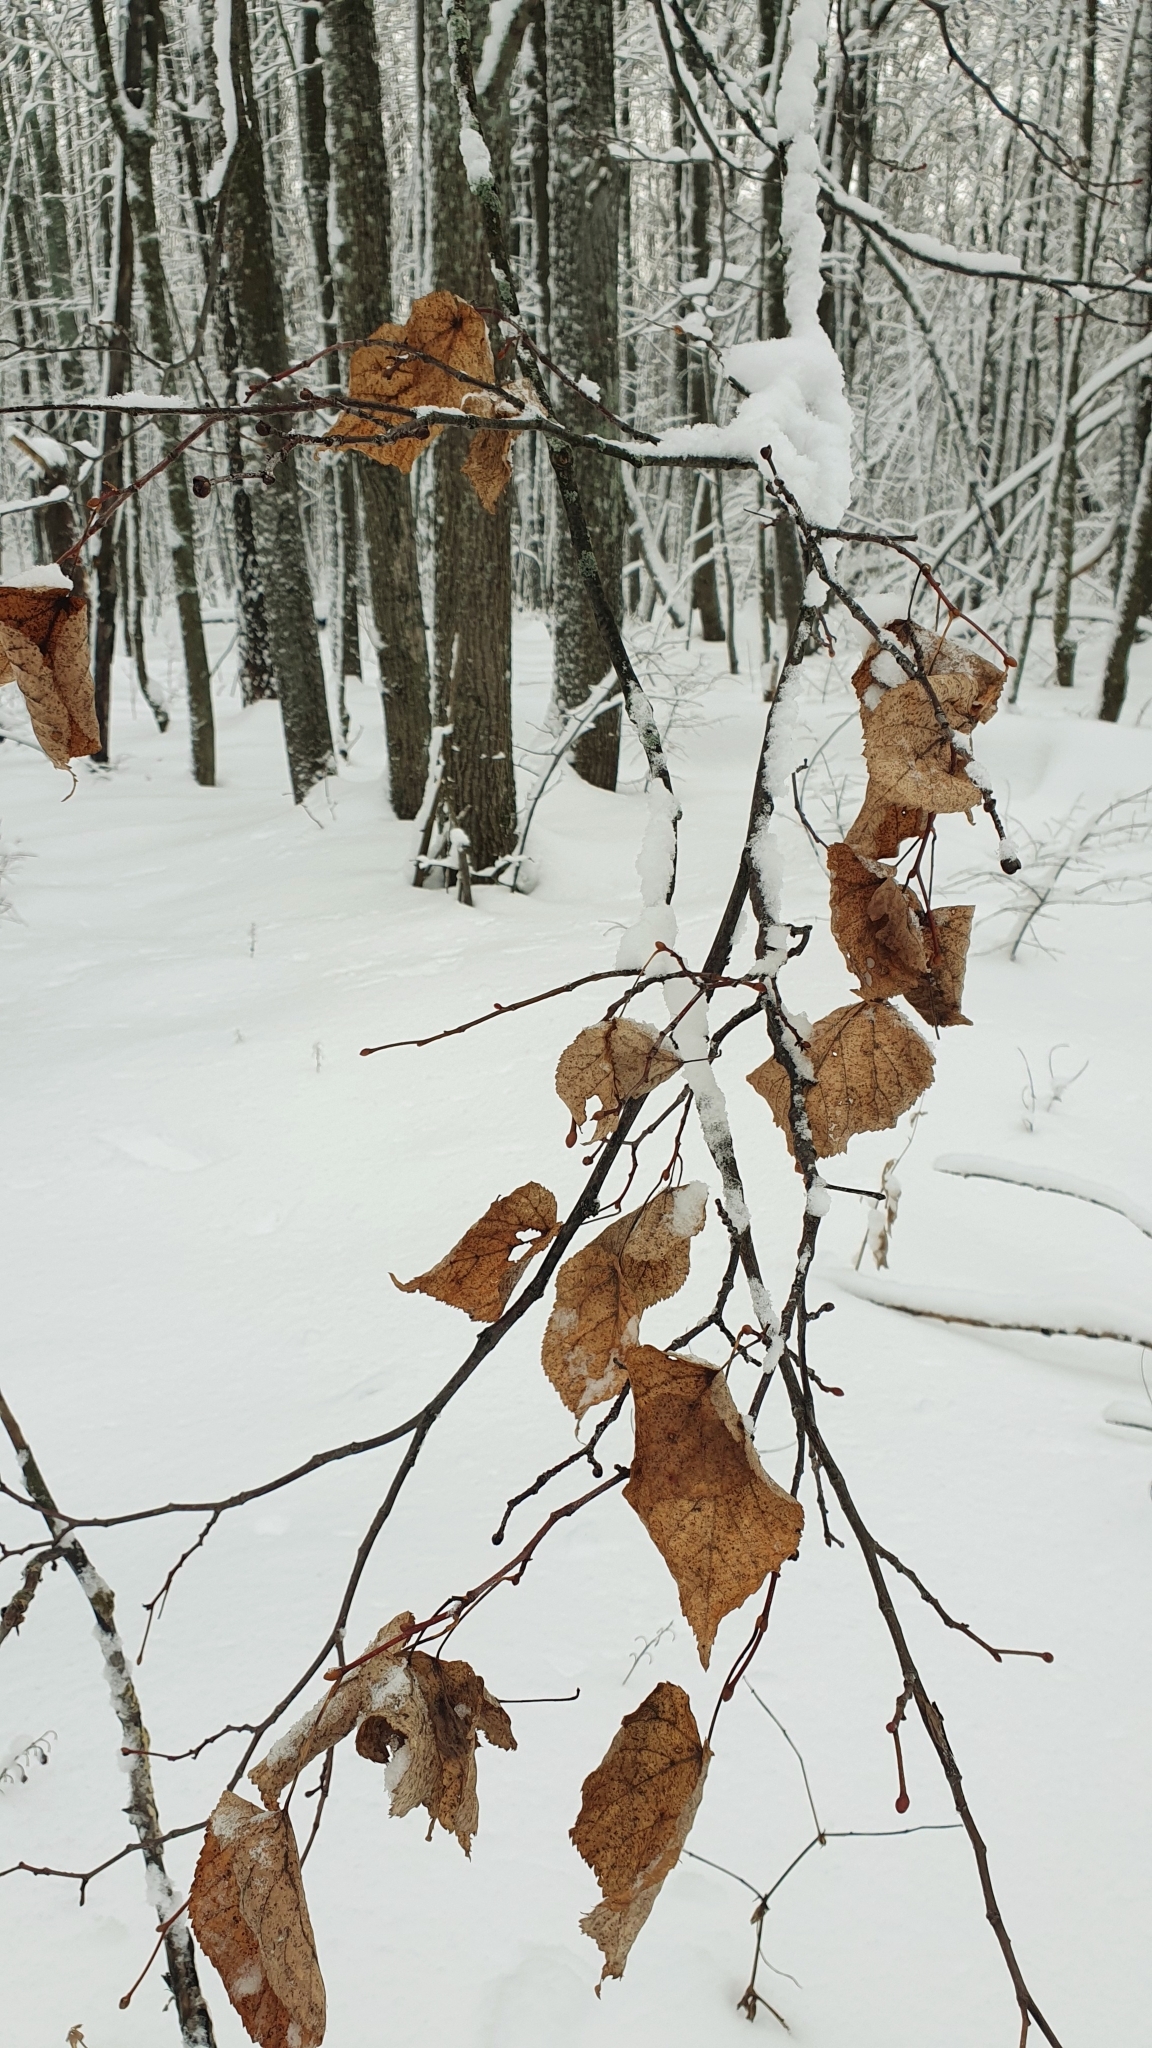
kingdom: Plantae
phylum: Tracheophyta
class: Magnoliopsida
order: Malvales
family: Malvaceae
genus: Tilia
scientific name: Tilia cordata
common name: Small-leaved lime
